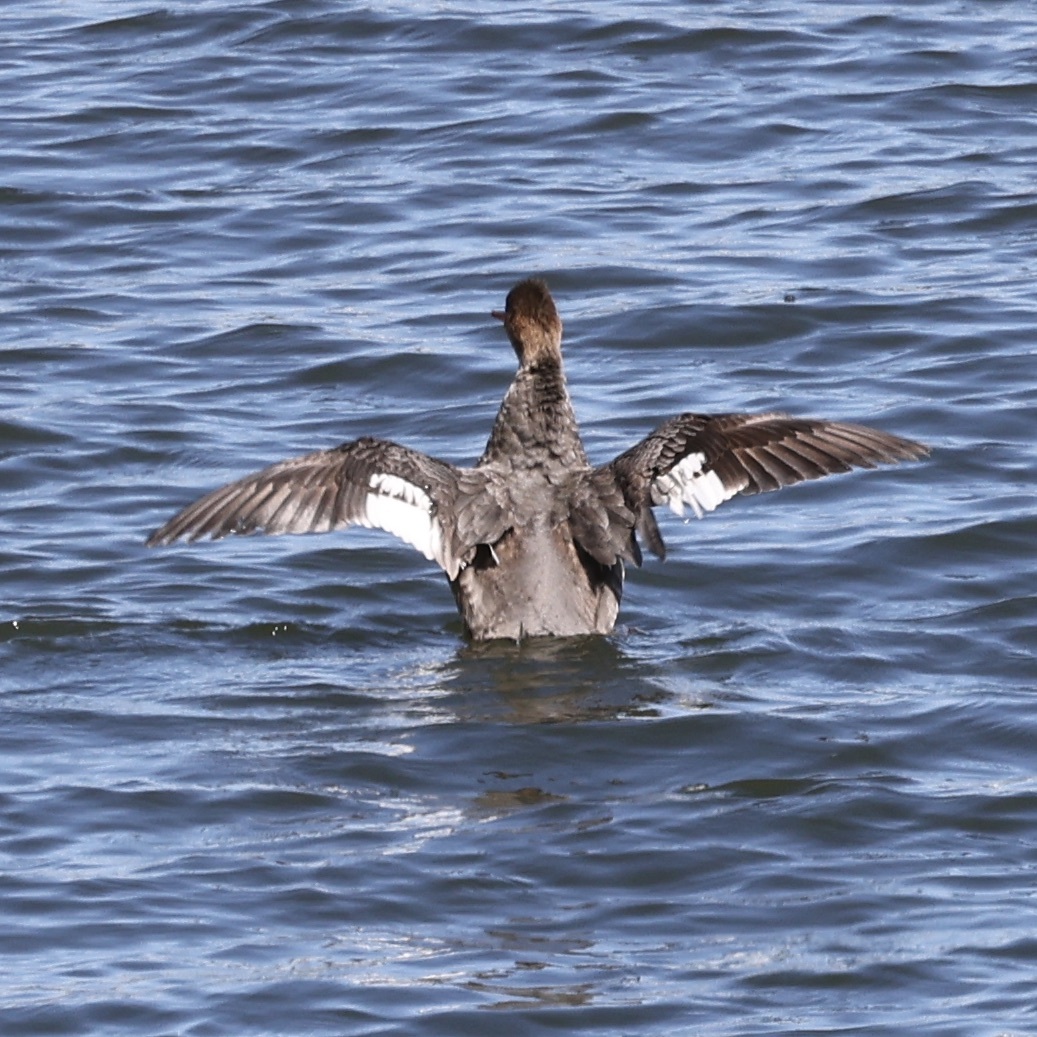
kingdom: Animalia
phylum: Chordata
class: Aves
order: Anseriformes
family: Anatidae
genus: Mergus
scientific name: Mergus serrator
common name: Red-breasted merganser
